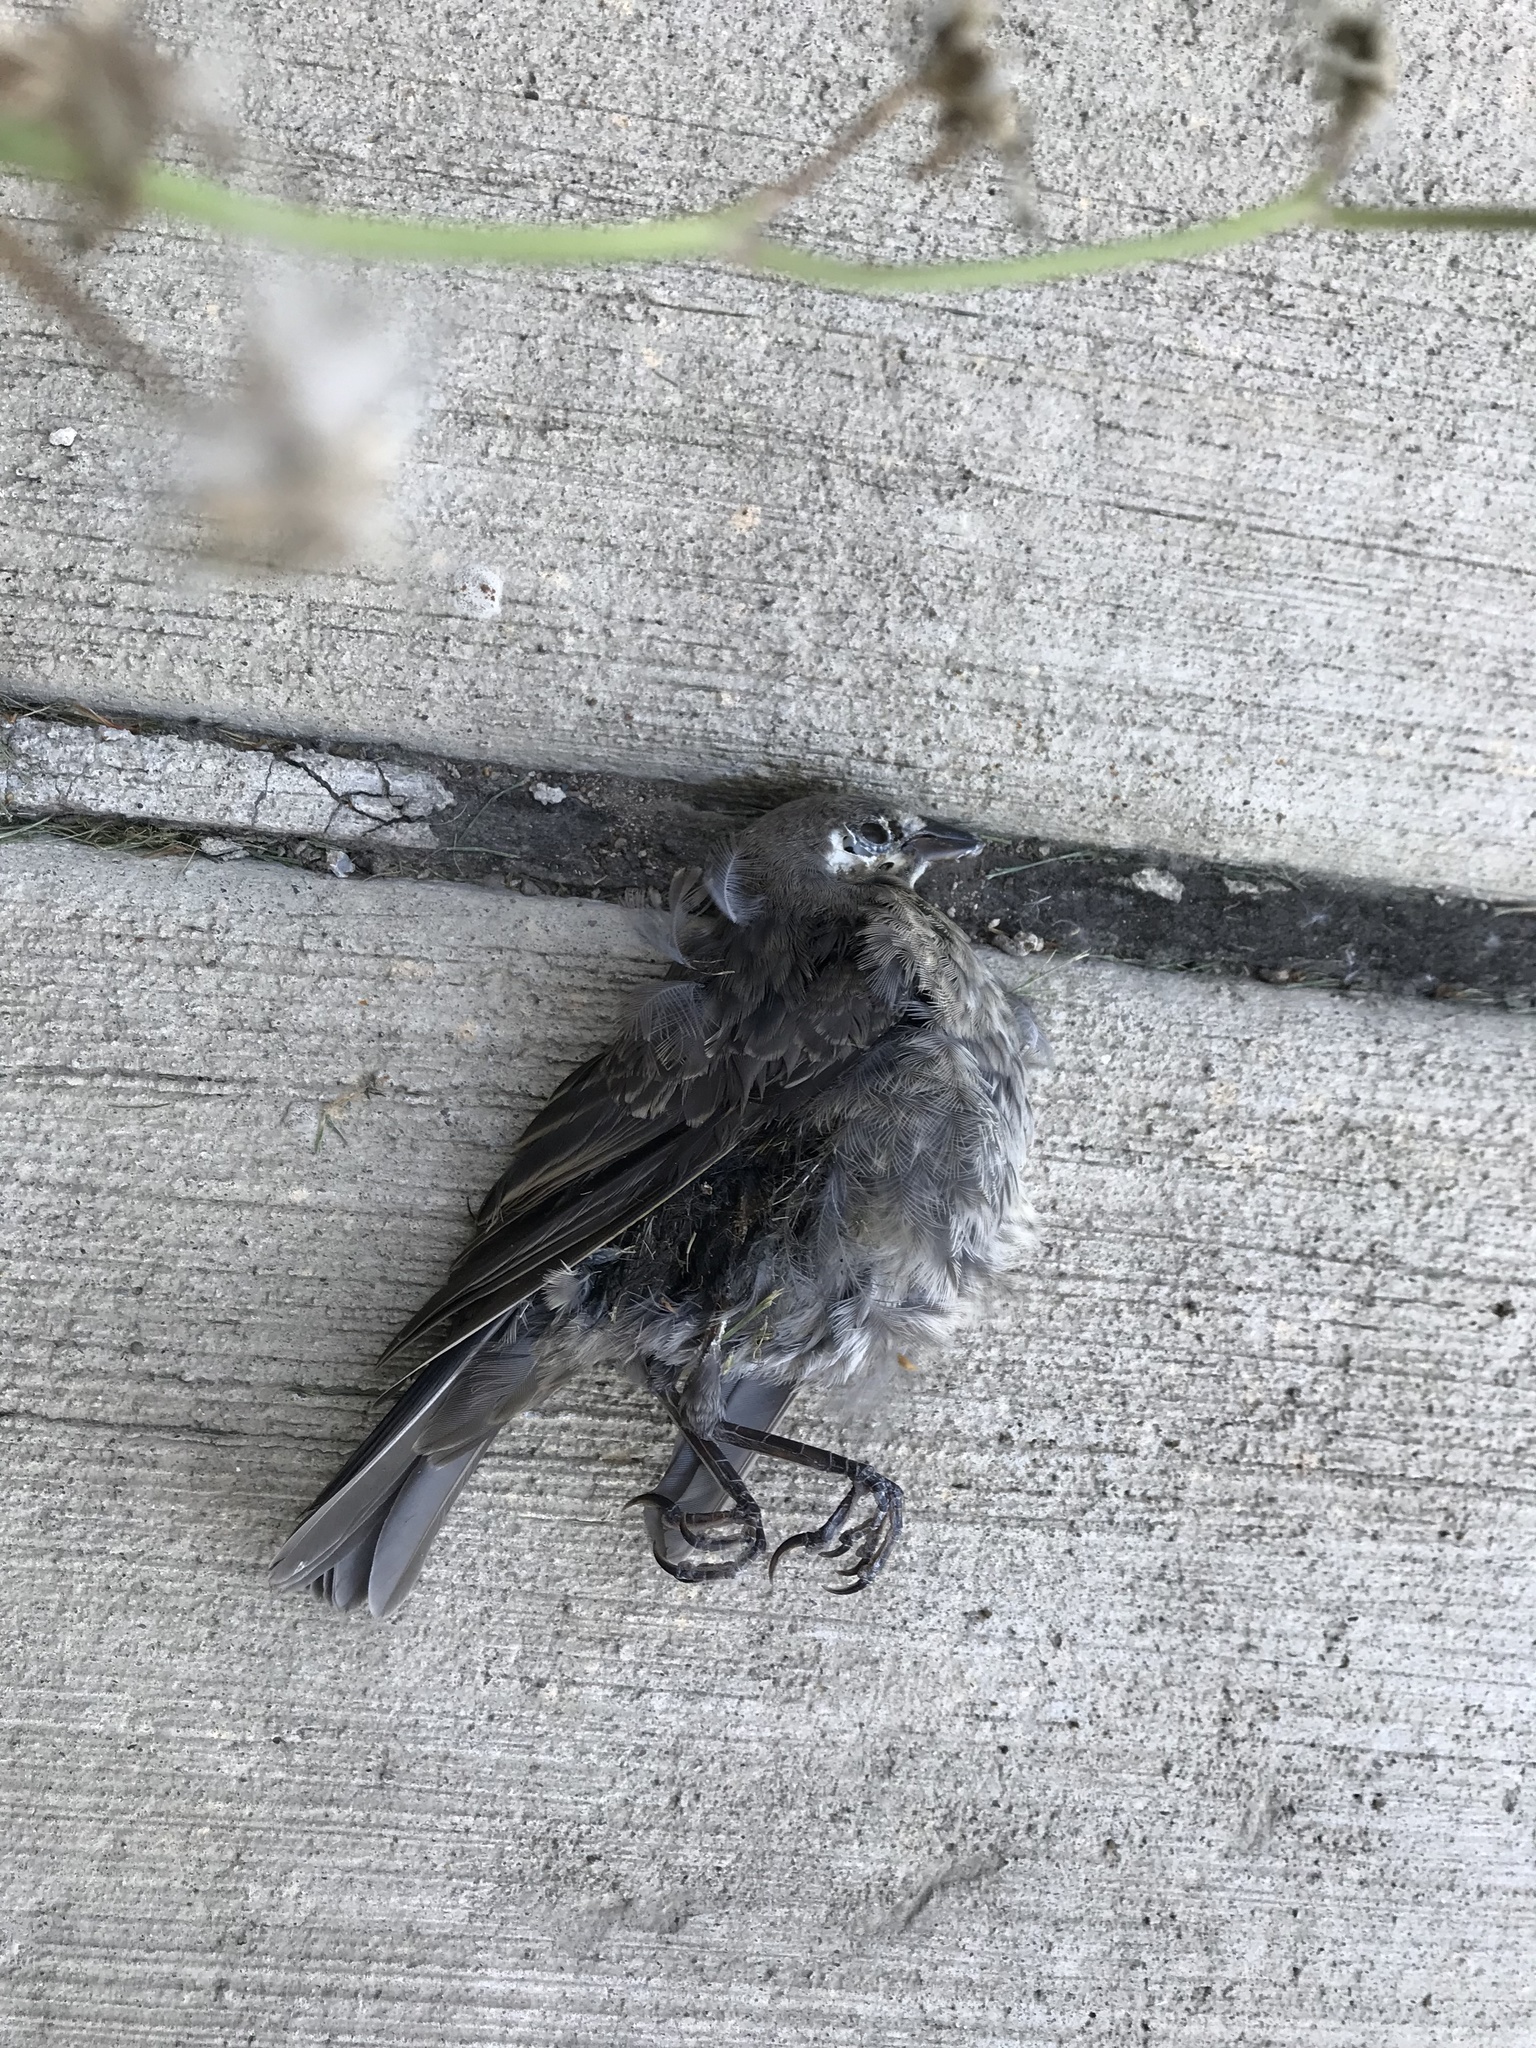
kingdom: Animalia
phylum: Chordata
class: Aves
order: Passeriformes
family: Icteridae
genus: Molothrus
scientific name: Molothrus ater
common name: Brown-headed cowbird
